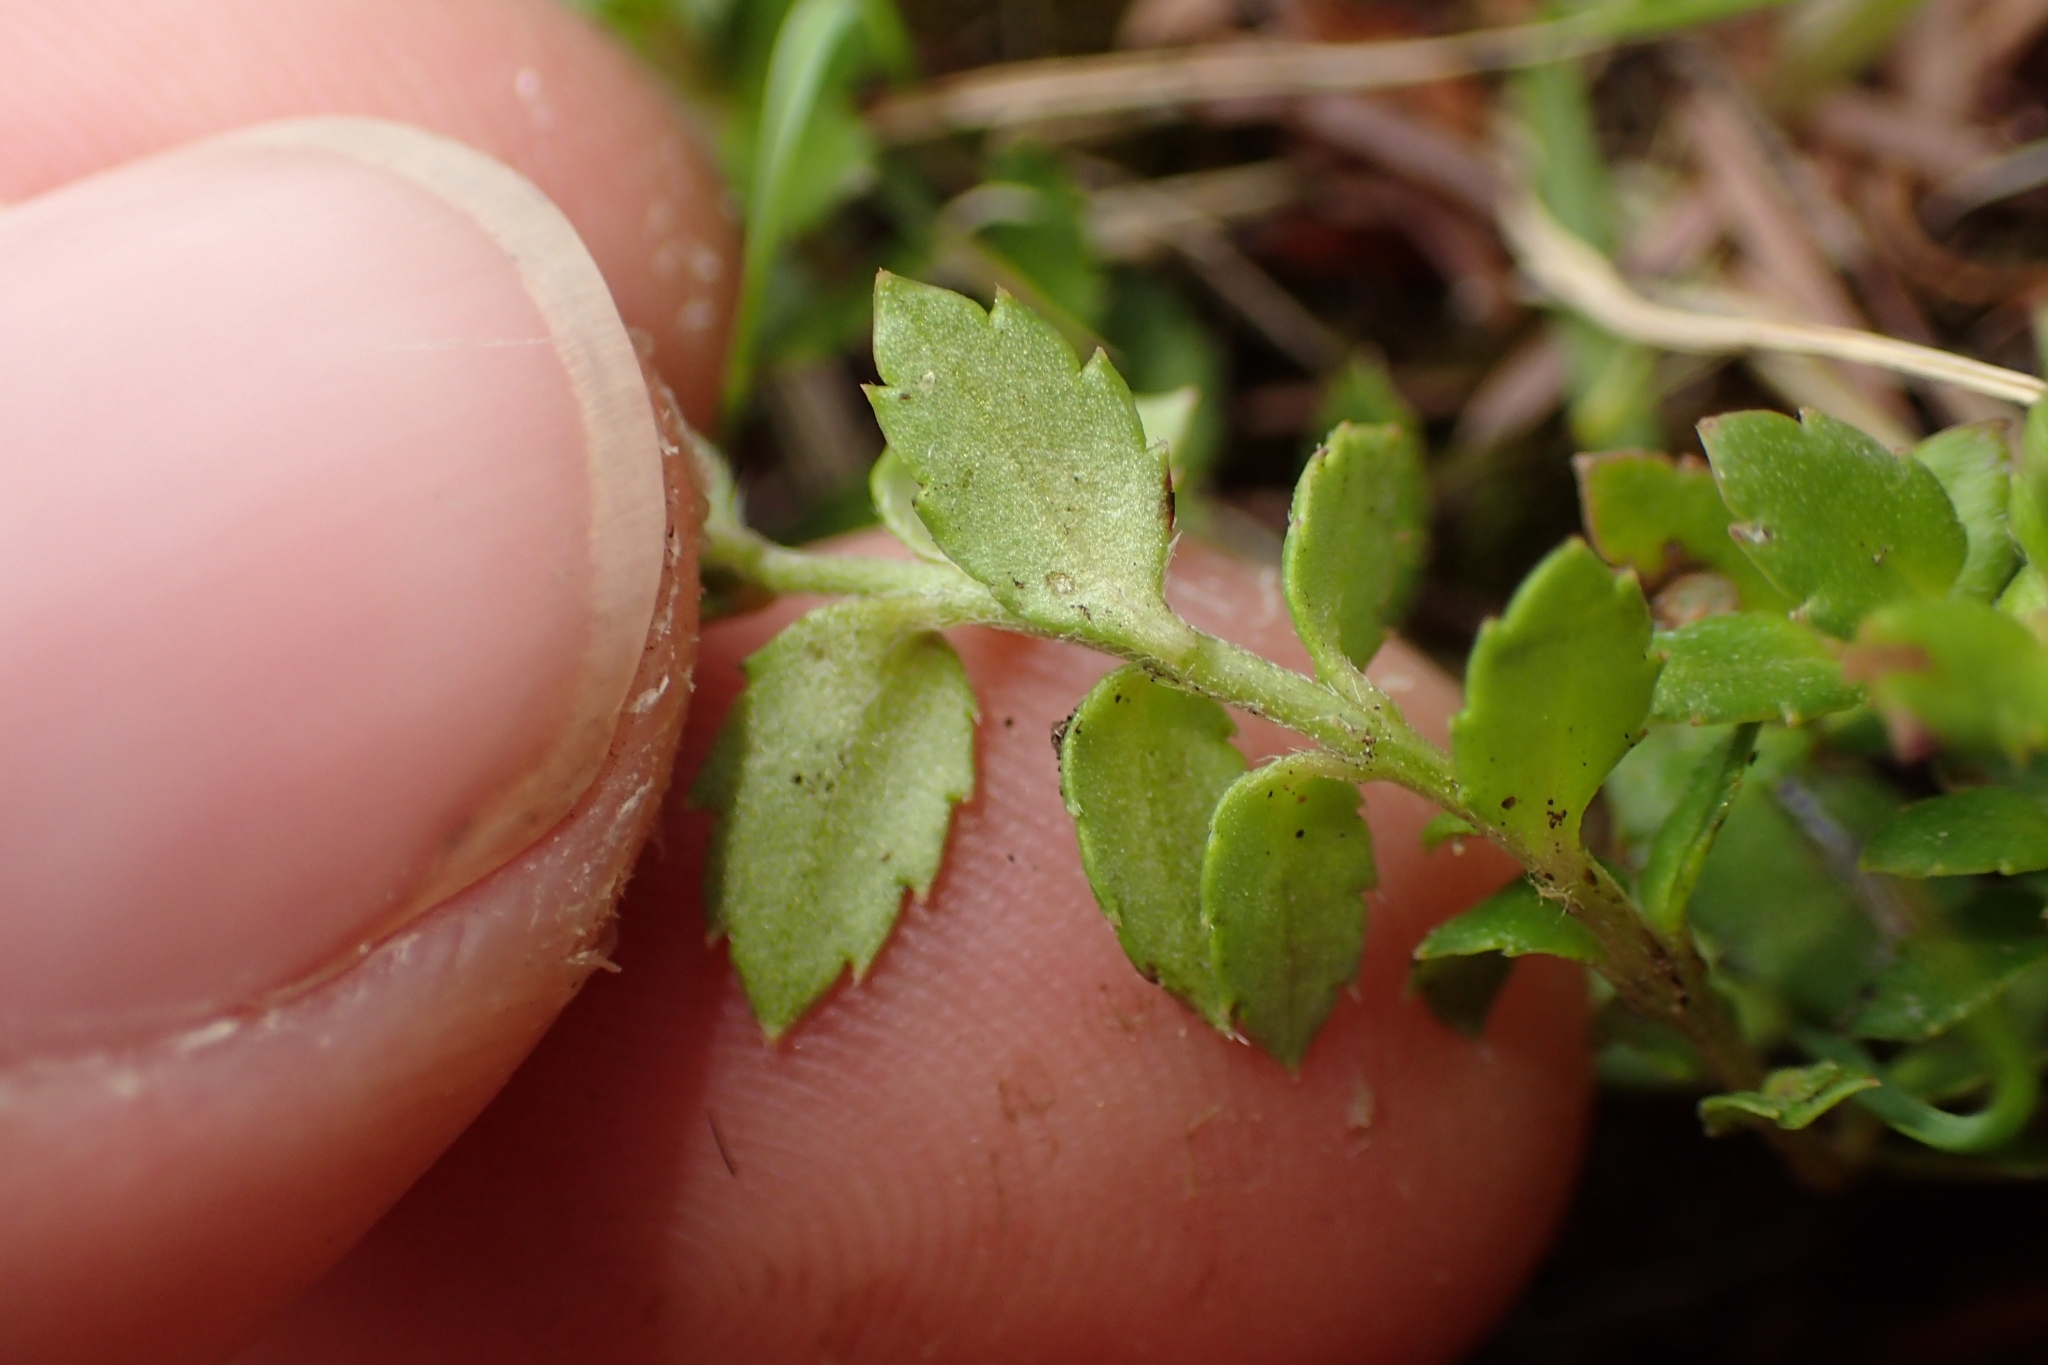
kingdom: Plantae
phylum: Tracheophyta
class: Magnoliopsida
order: Saxifragales
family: Haloragaceae
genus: Gonocarpus
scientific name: Gonocarpus incanus
